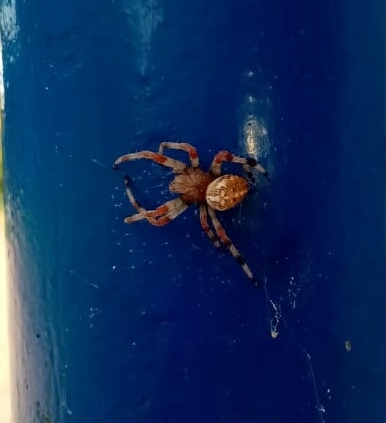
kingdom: Animalia
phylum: Arthropoda
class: Arachnida
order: Araneae
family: Araneidae
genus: Araneus
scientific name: Araneus marmoreus
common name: Marbled orbweaver
